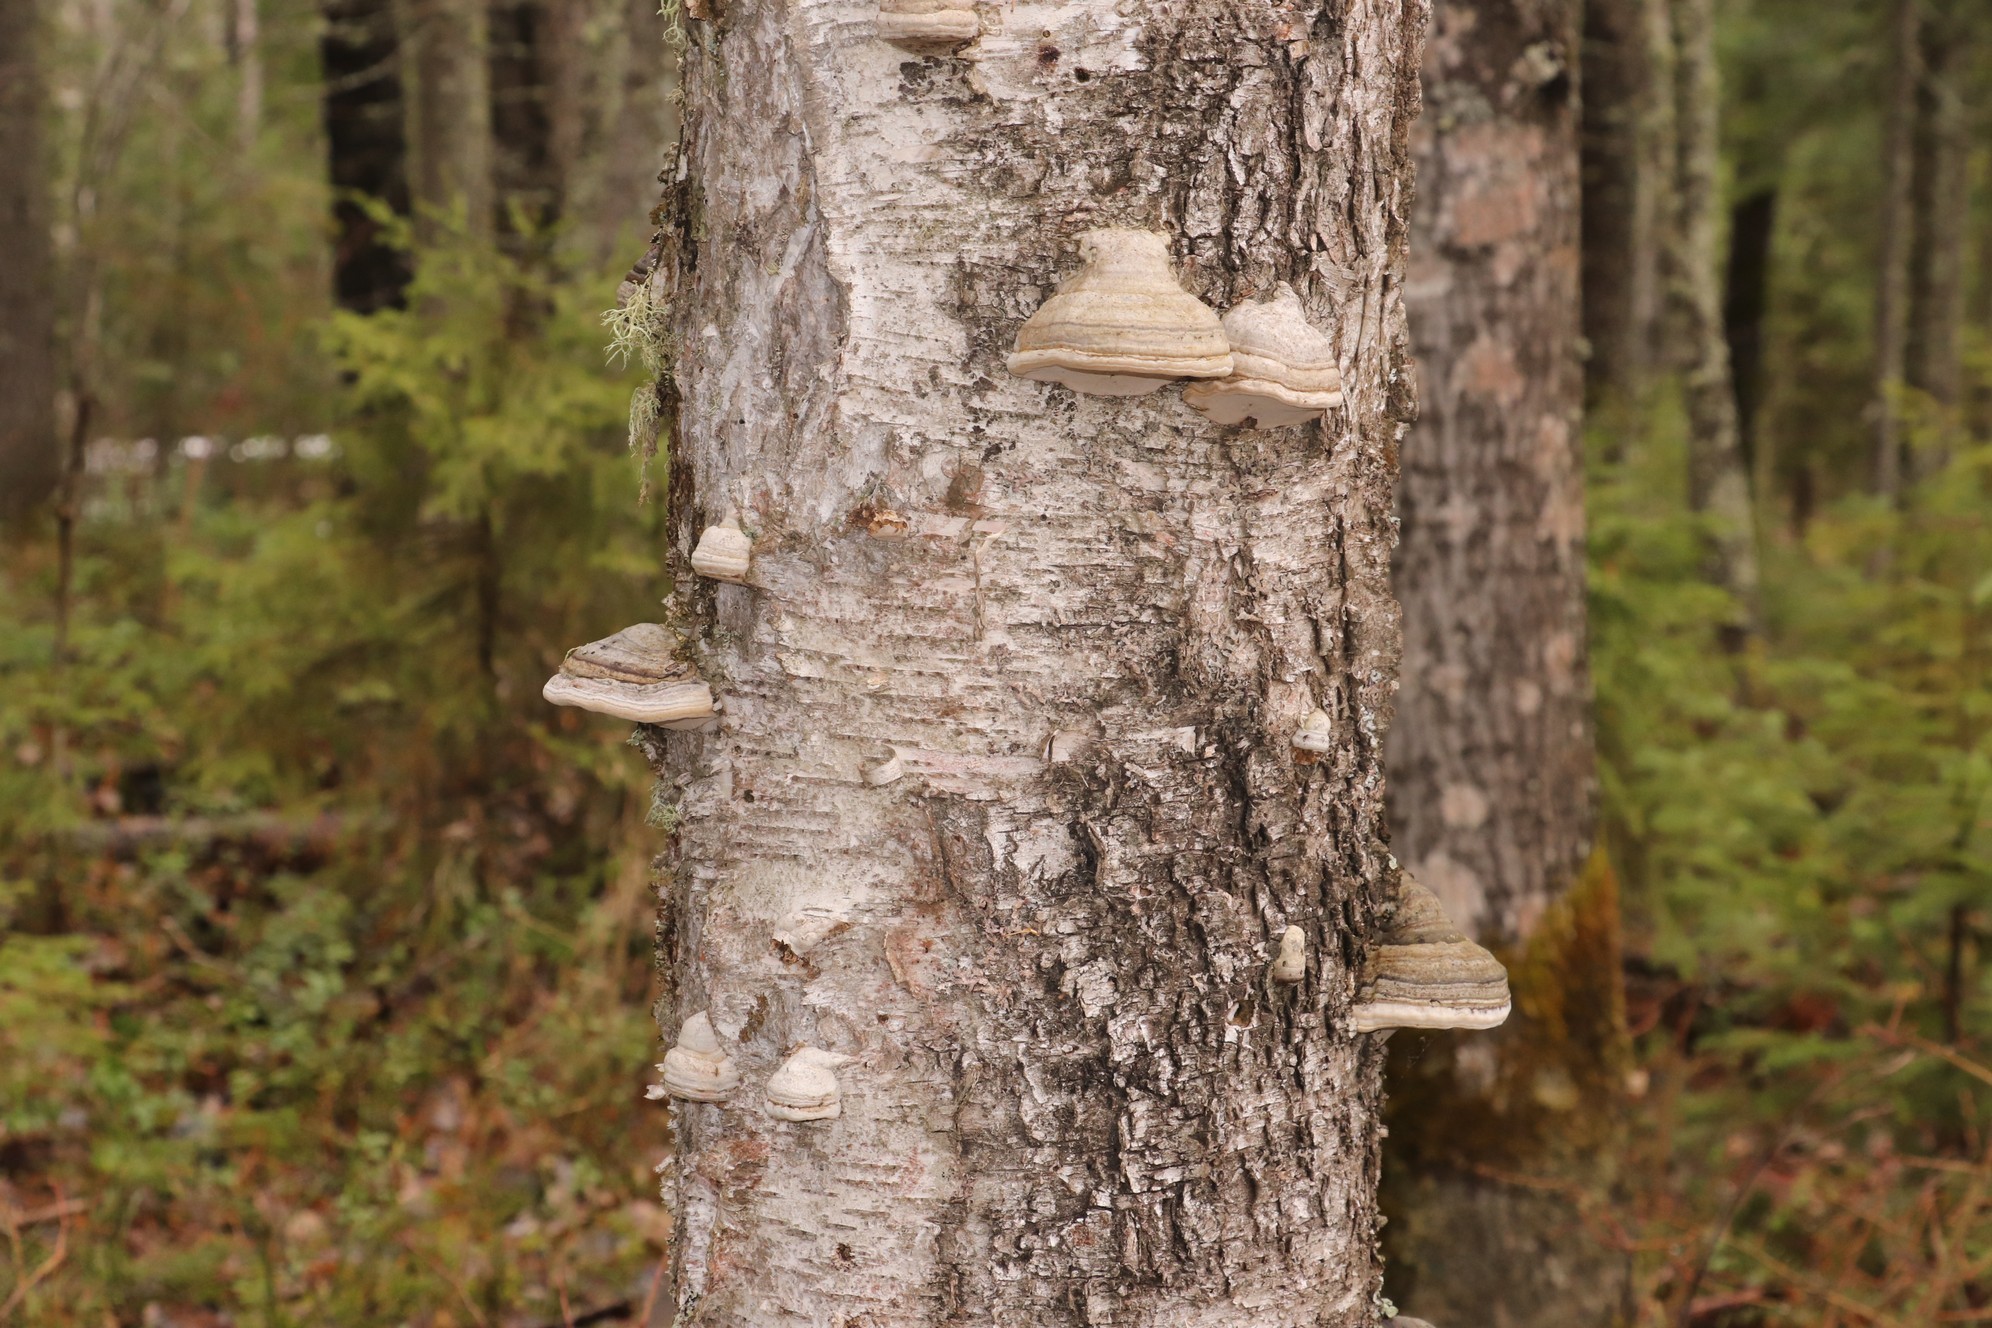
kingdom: Fungi
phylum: Basidiomycota
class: Agaricomycetes
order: Polyporales
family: Polyporaceae
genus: Fomes
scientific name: Fomes fomentarius
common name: Hoof fungus
